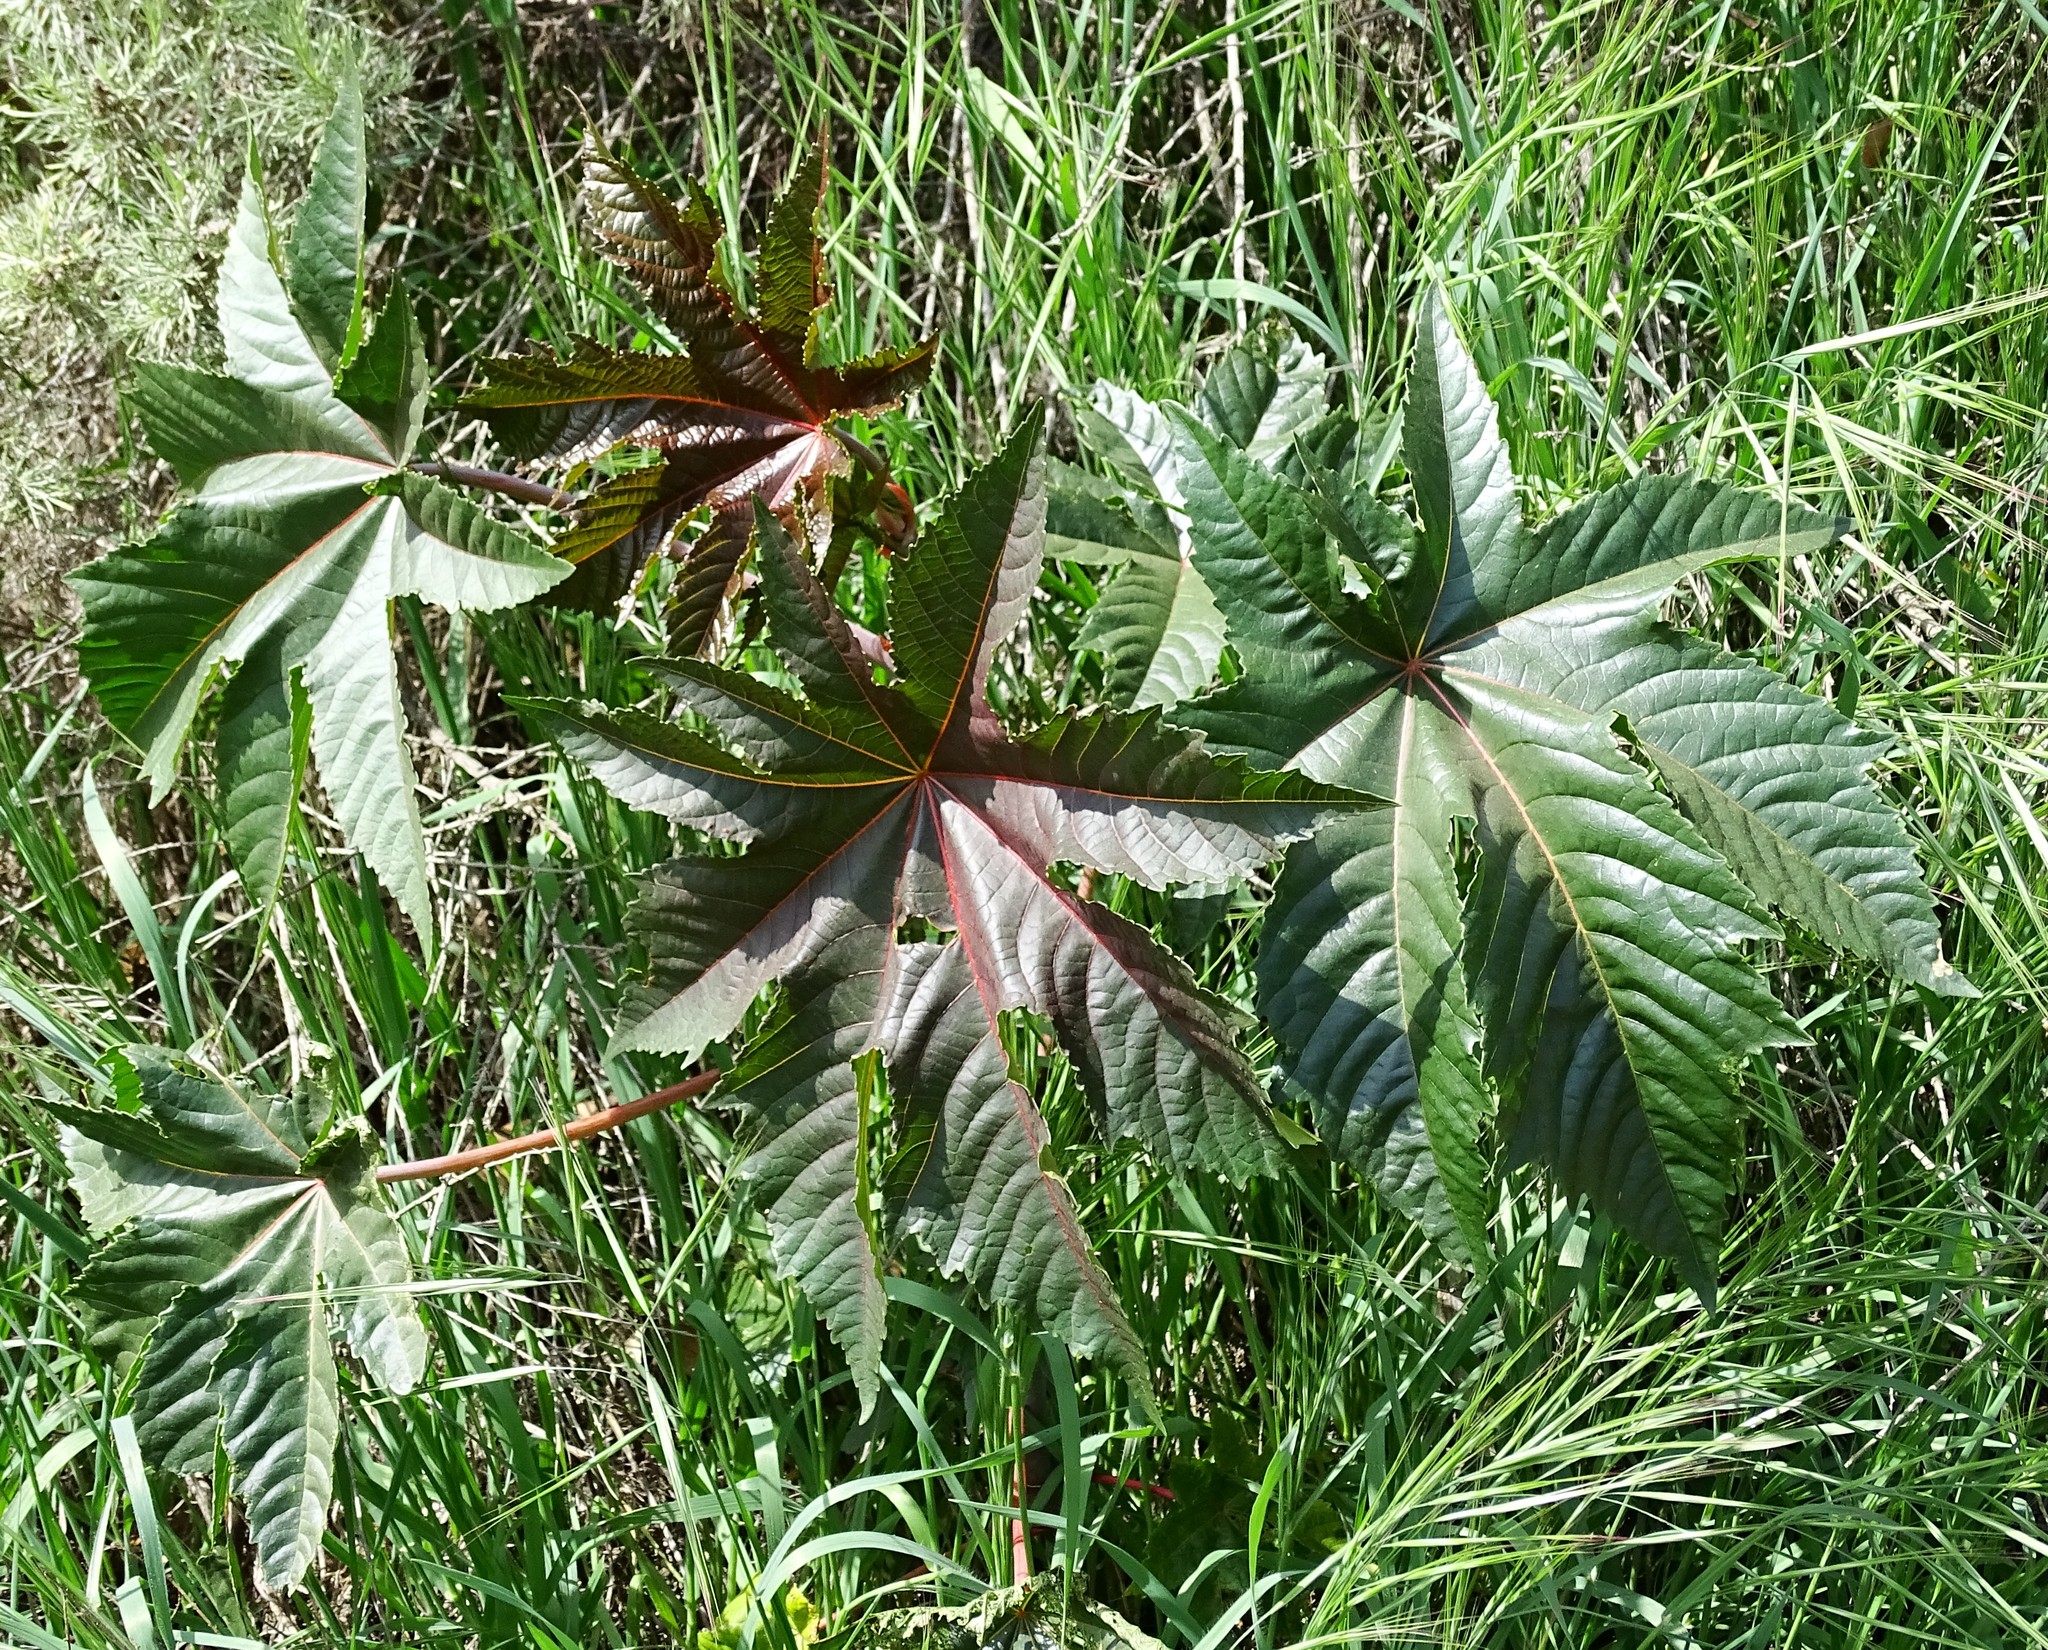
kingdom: Plantae
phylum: Tracheophyta
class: Magnoliopsida
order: Malpighiales
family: Euphorbiaceae
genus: Ricinus
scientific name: Ricinus communis
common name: Castor-oil-plant
